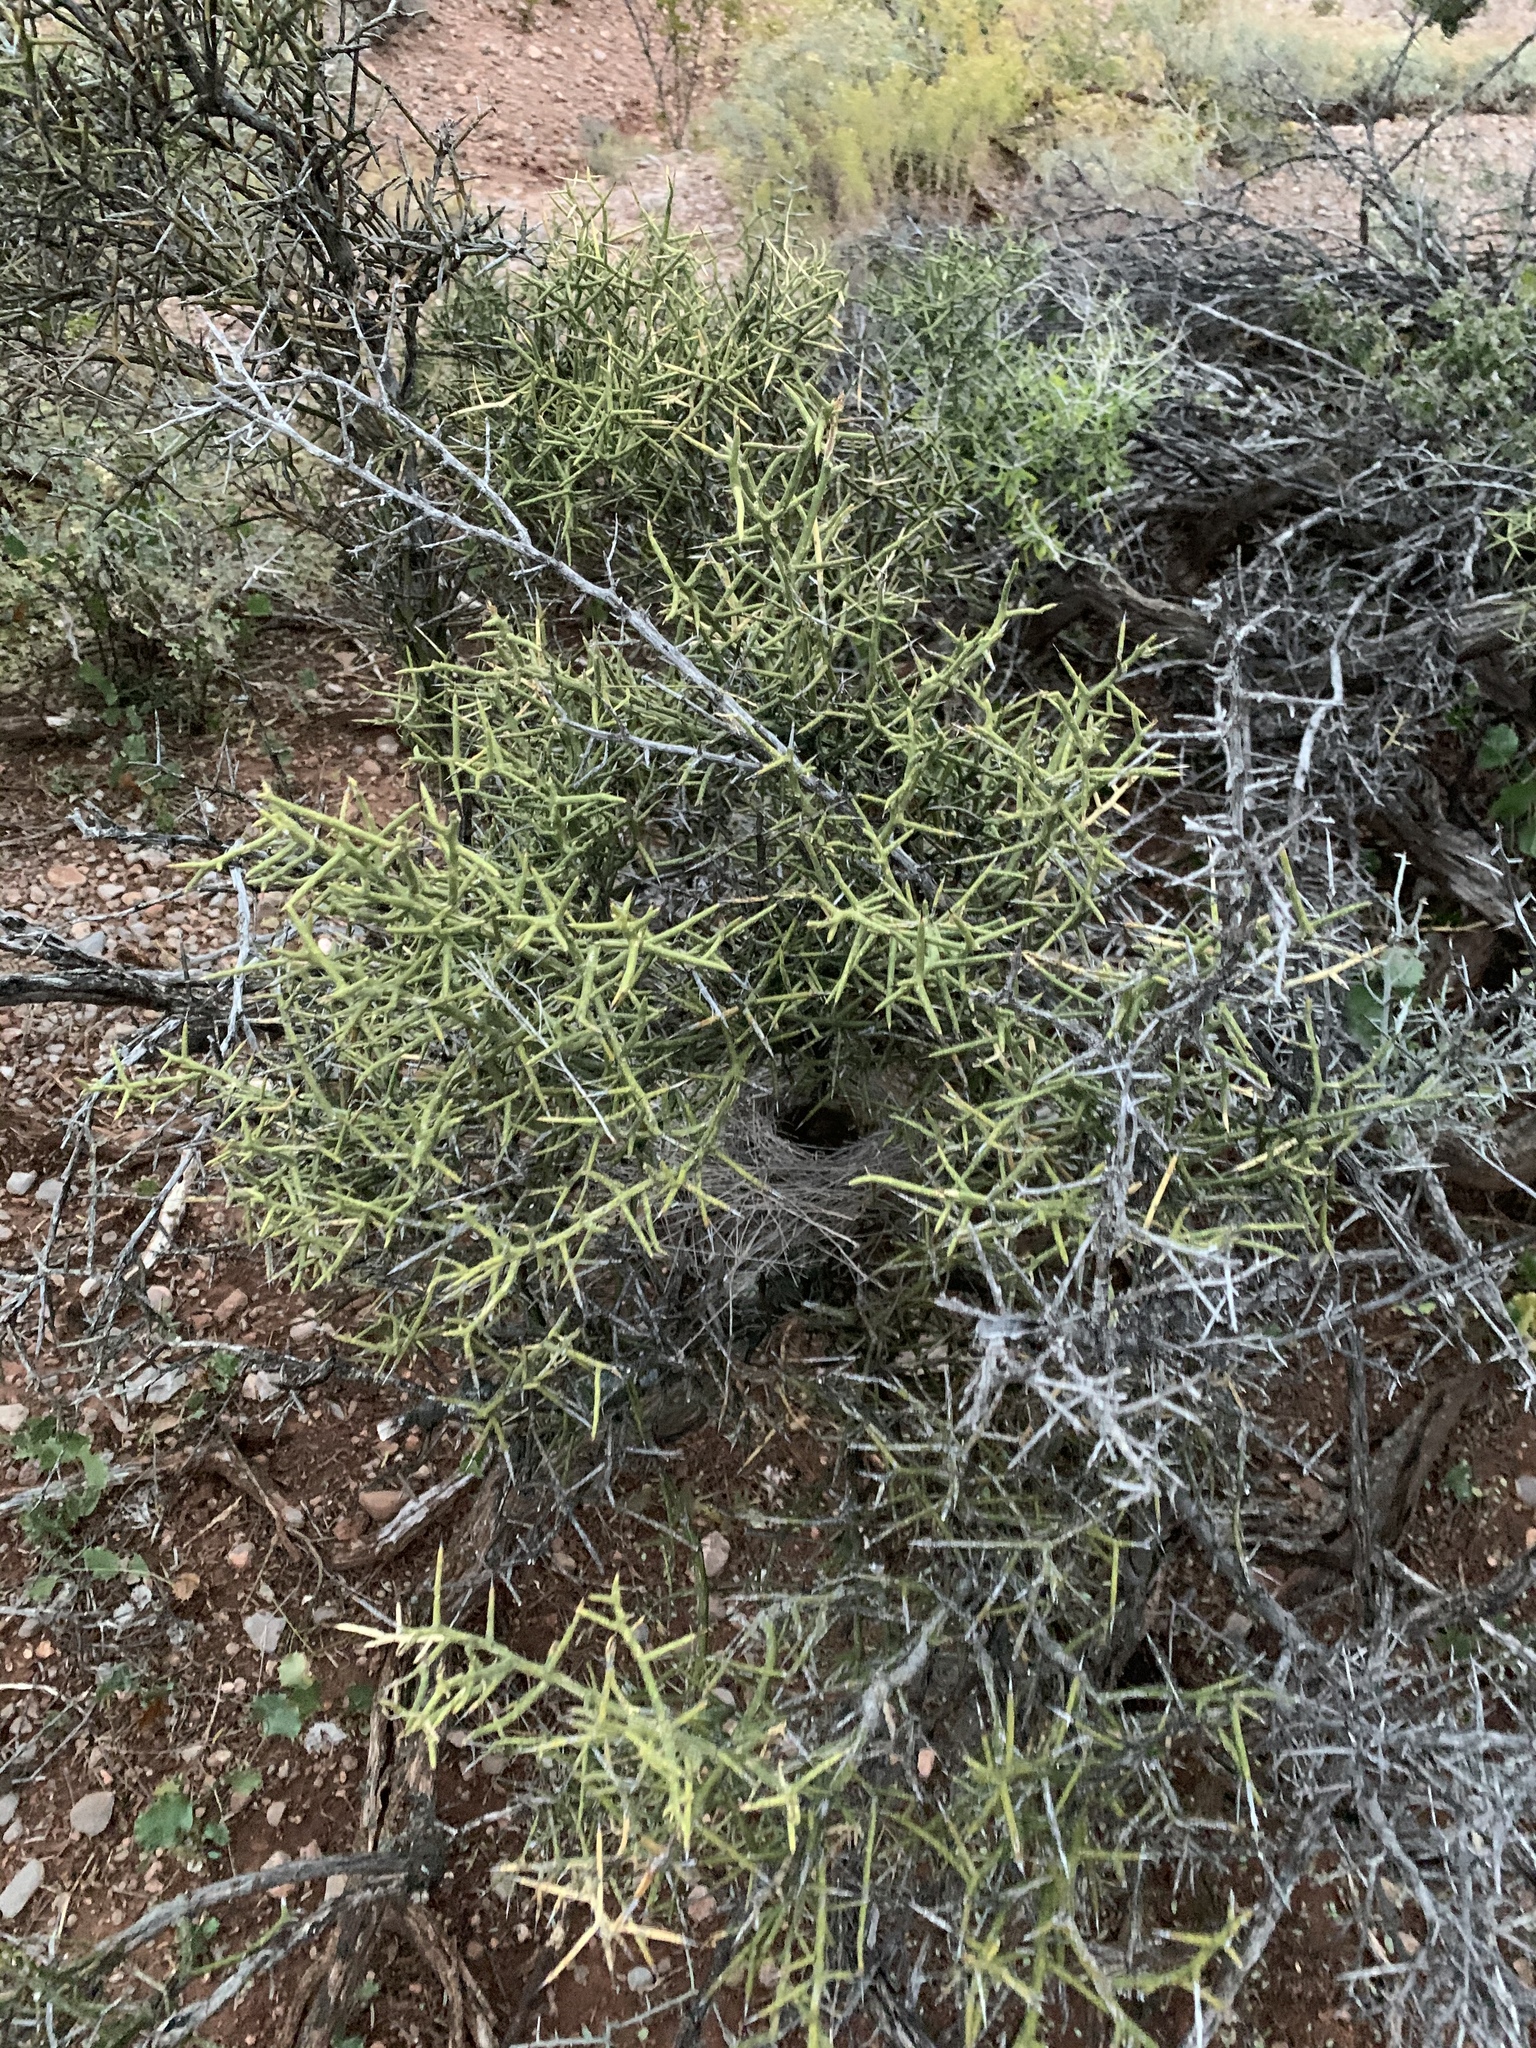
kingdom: Plantae
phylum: Tracheophyta
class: Magnoliopsida
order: Brassicales
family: Koeberliniaceae
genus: Koeberlinia
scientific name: Koeberlinia spinosa
